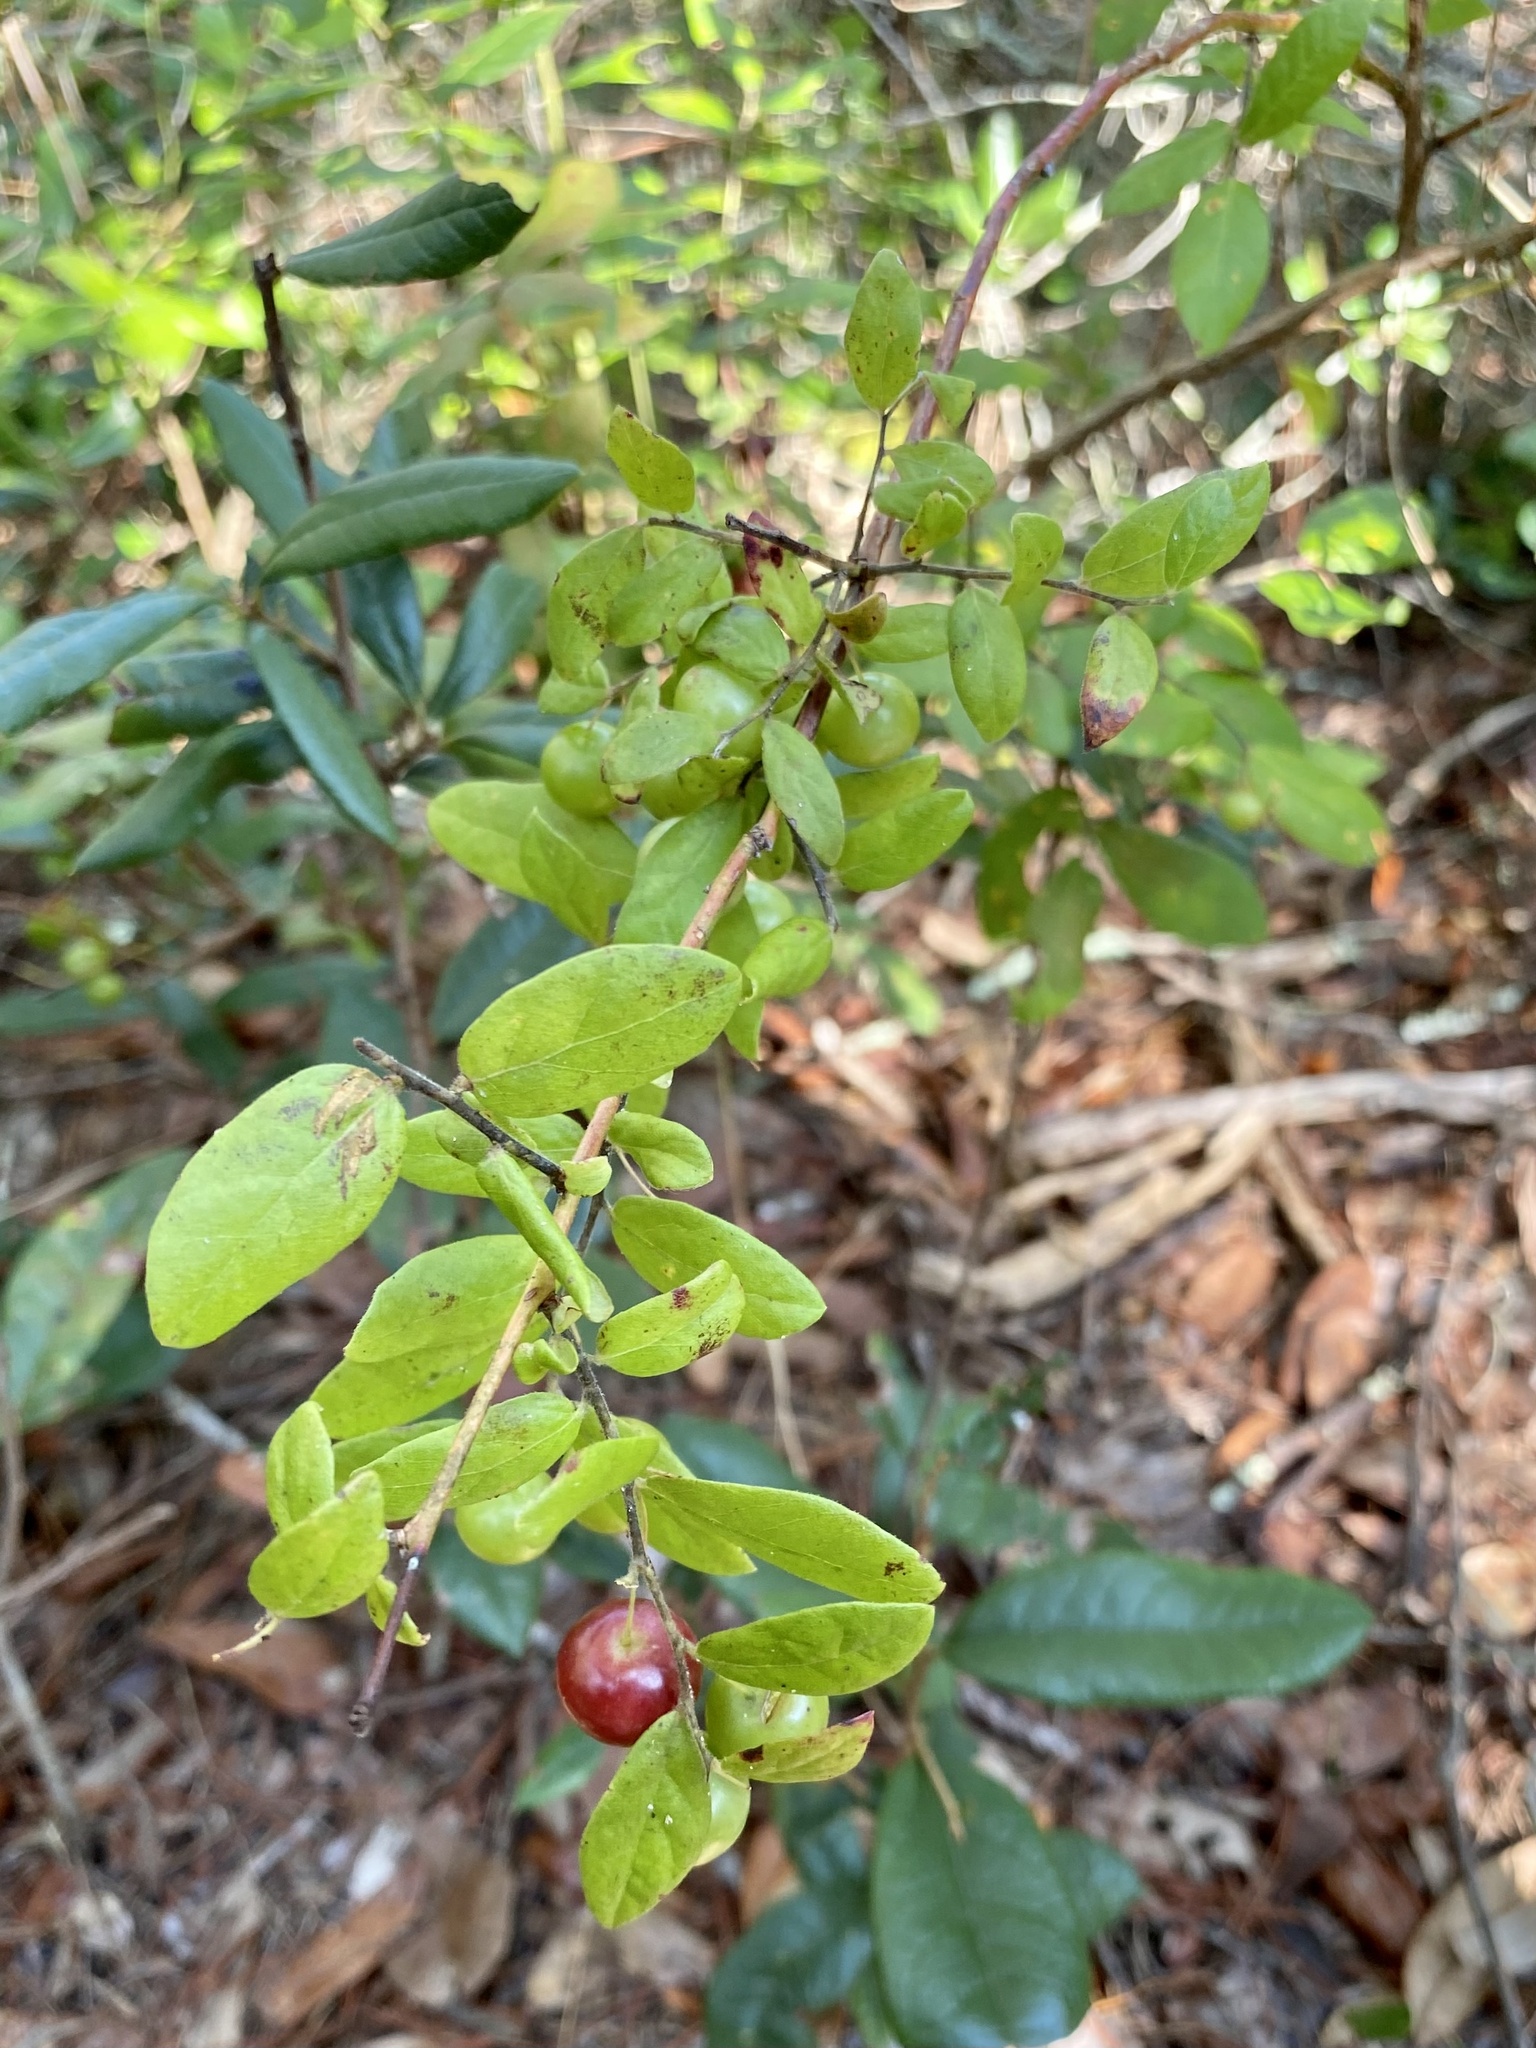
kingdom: Plantae
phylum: Tracheophyta
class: Magnoliopsida
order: Ericales
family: Ericaceae
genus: Vaccinium
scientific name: Vaccinium stamineum
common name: Deerberry
